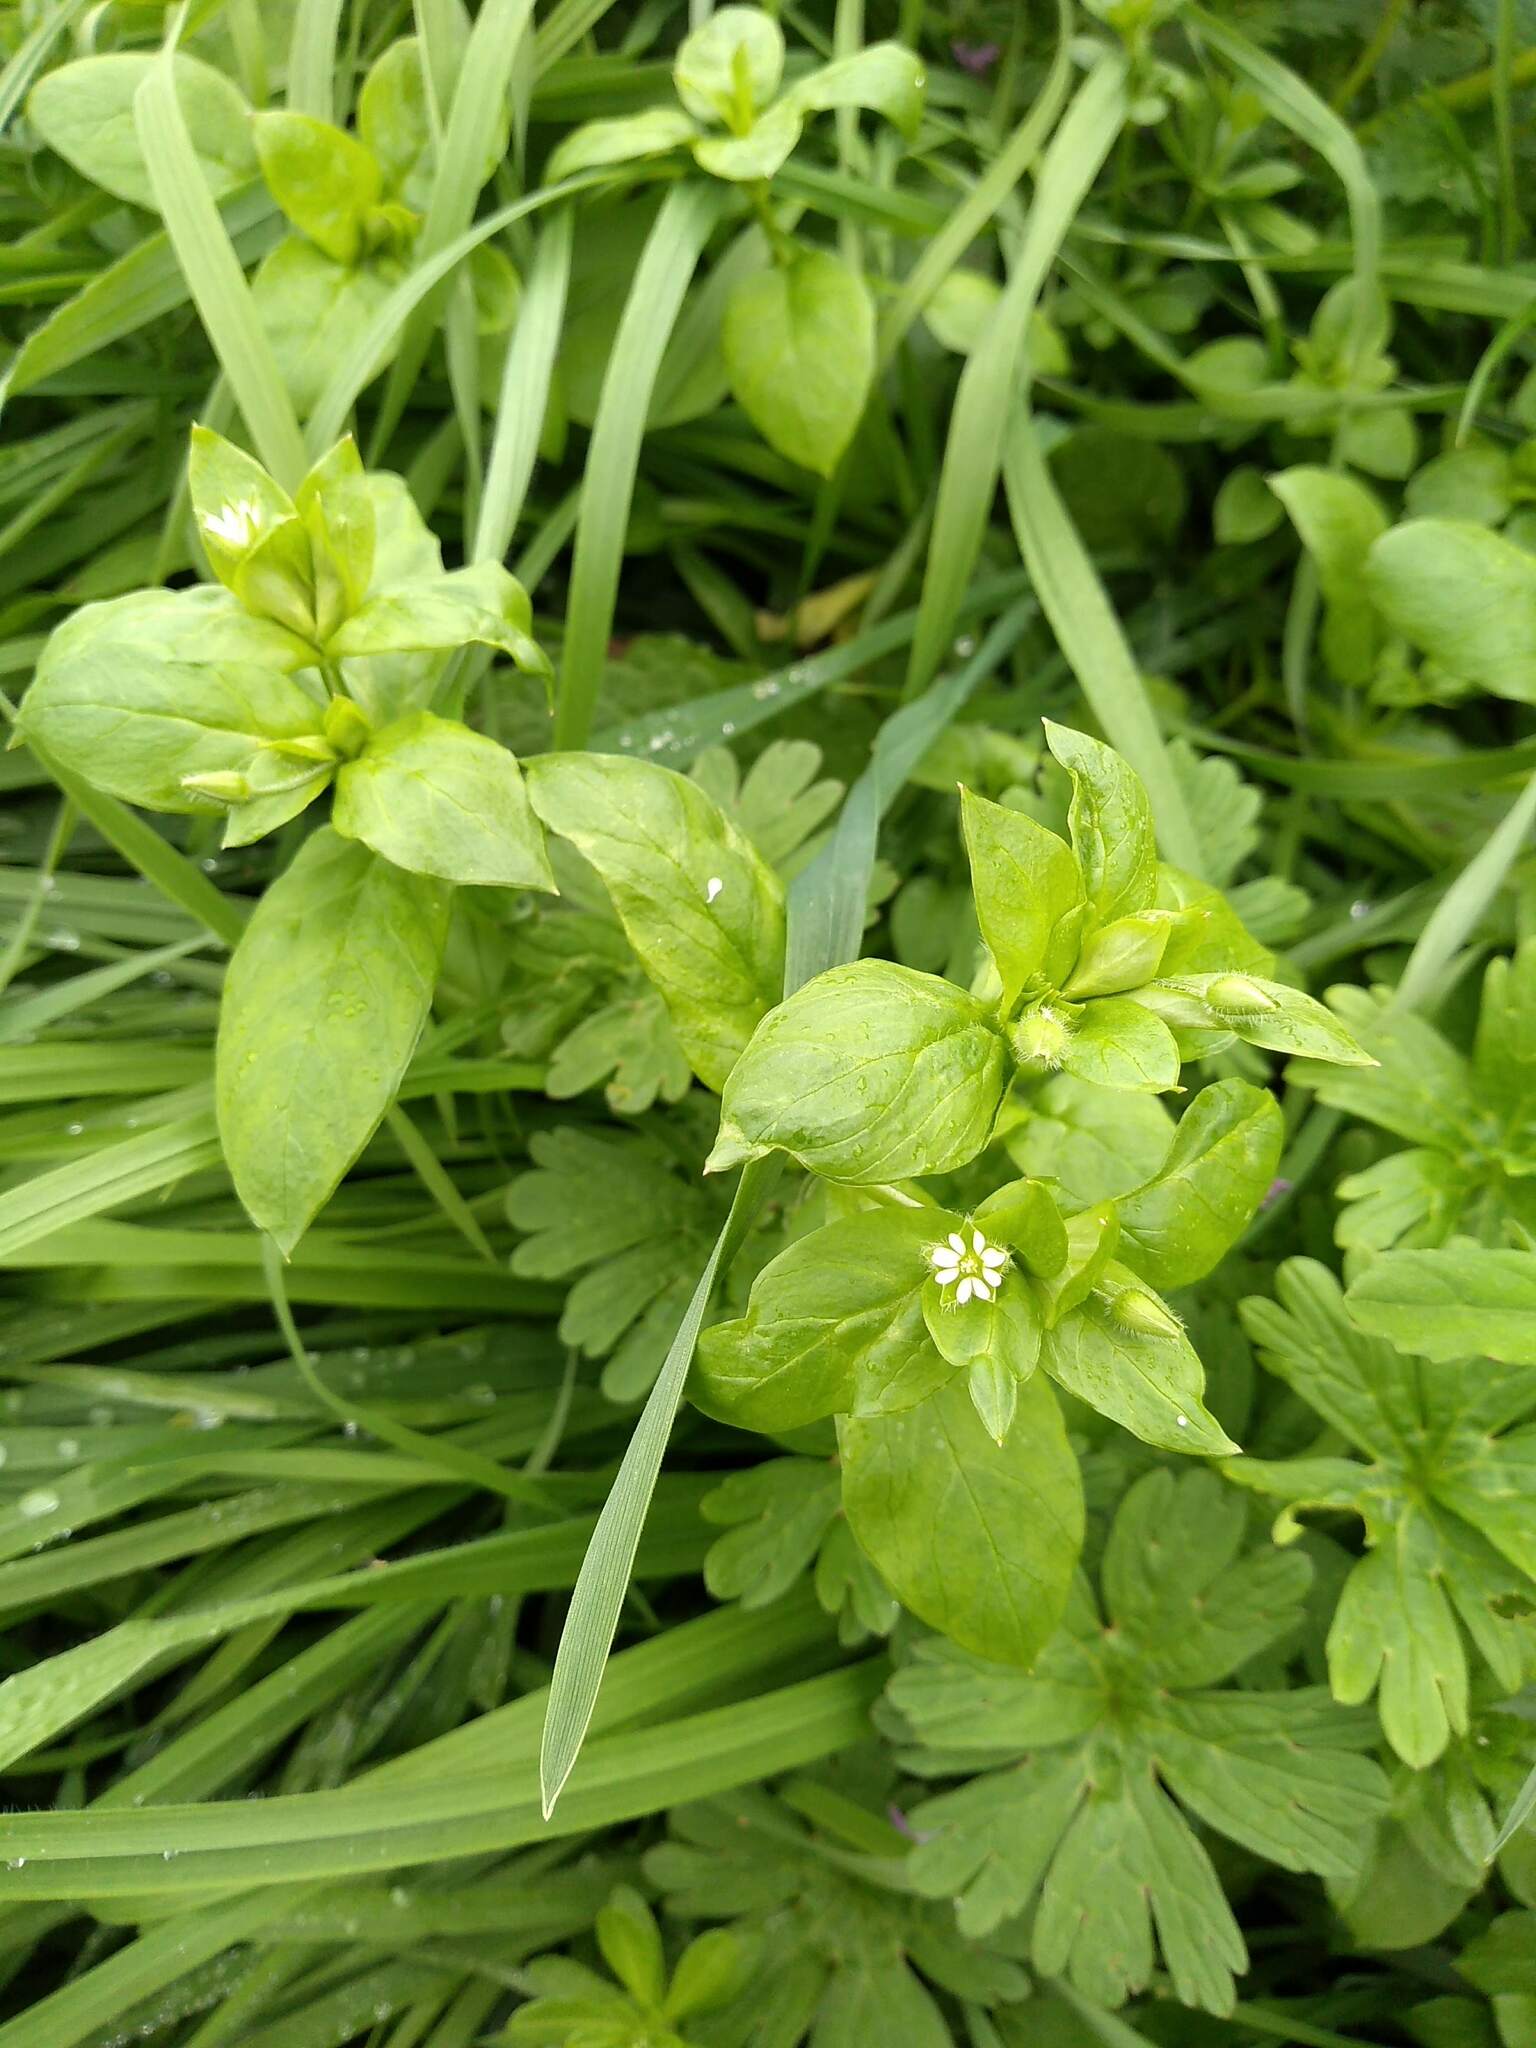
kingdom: Plantae
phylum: Tracheophyta
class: Magnoliopsida
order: Caryophyllales
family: Caryophyllaceae
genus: Stellaria
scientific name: Stellaria media
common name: Common chickweed
